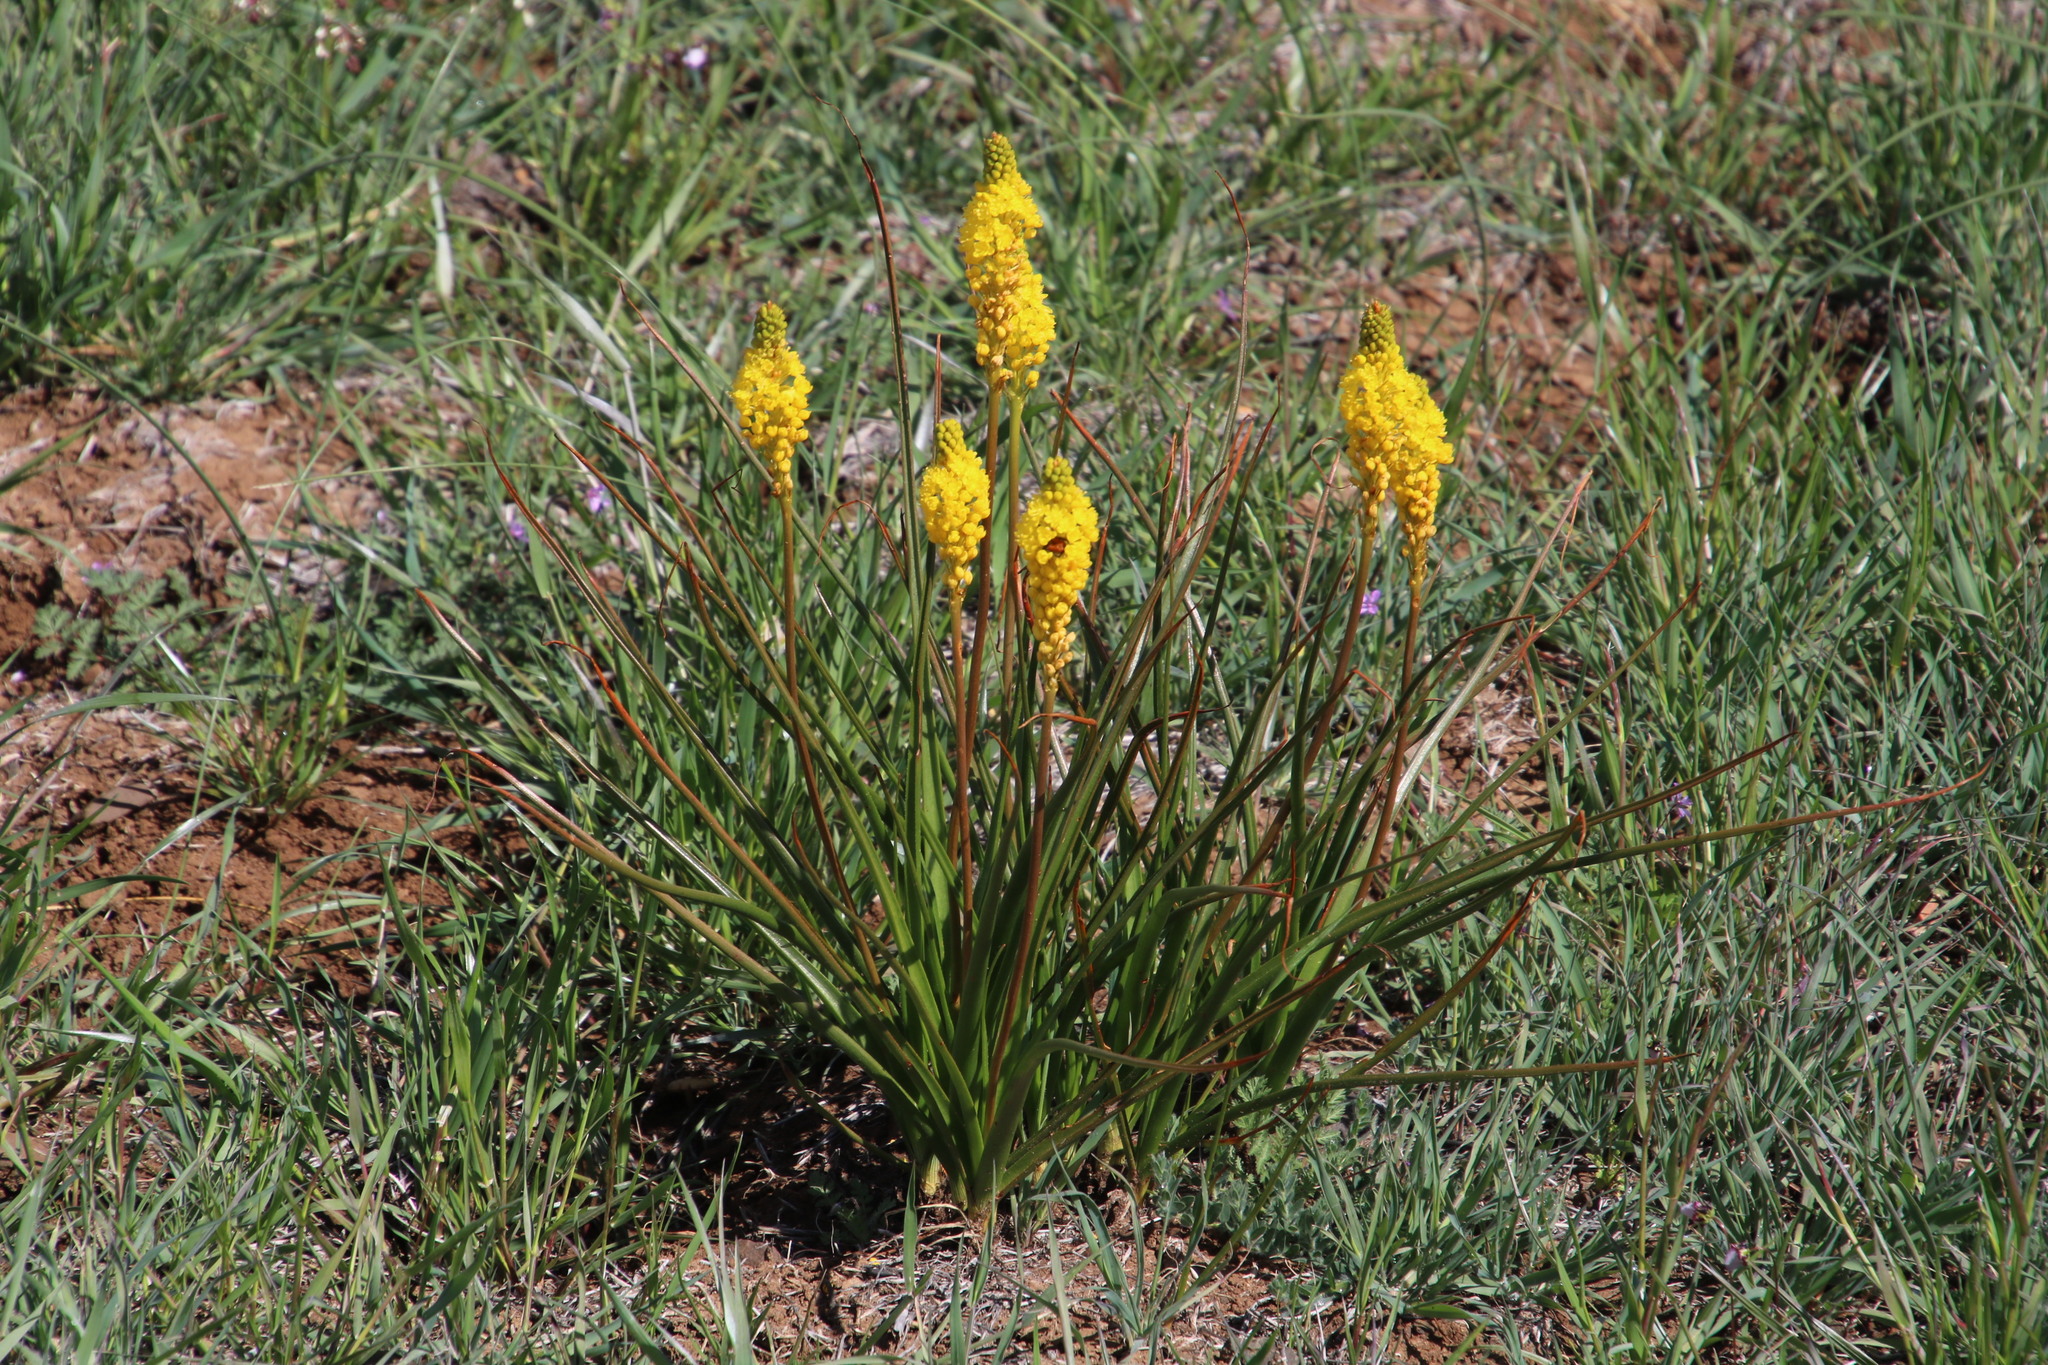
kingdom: Plantae
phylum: Tracheophyta
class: Liliopsida
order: Asparagales
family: Asphodelaceae
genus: Bulbinella
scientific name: Bulbinella nutans
